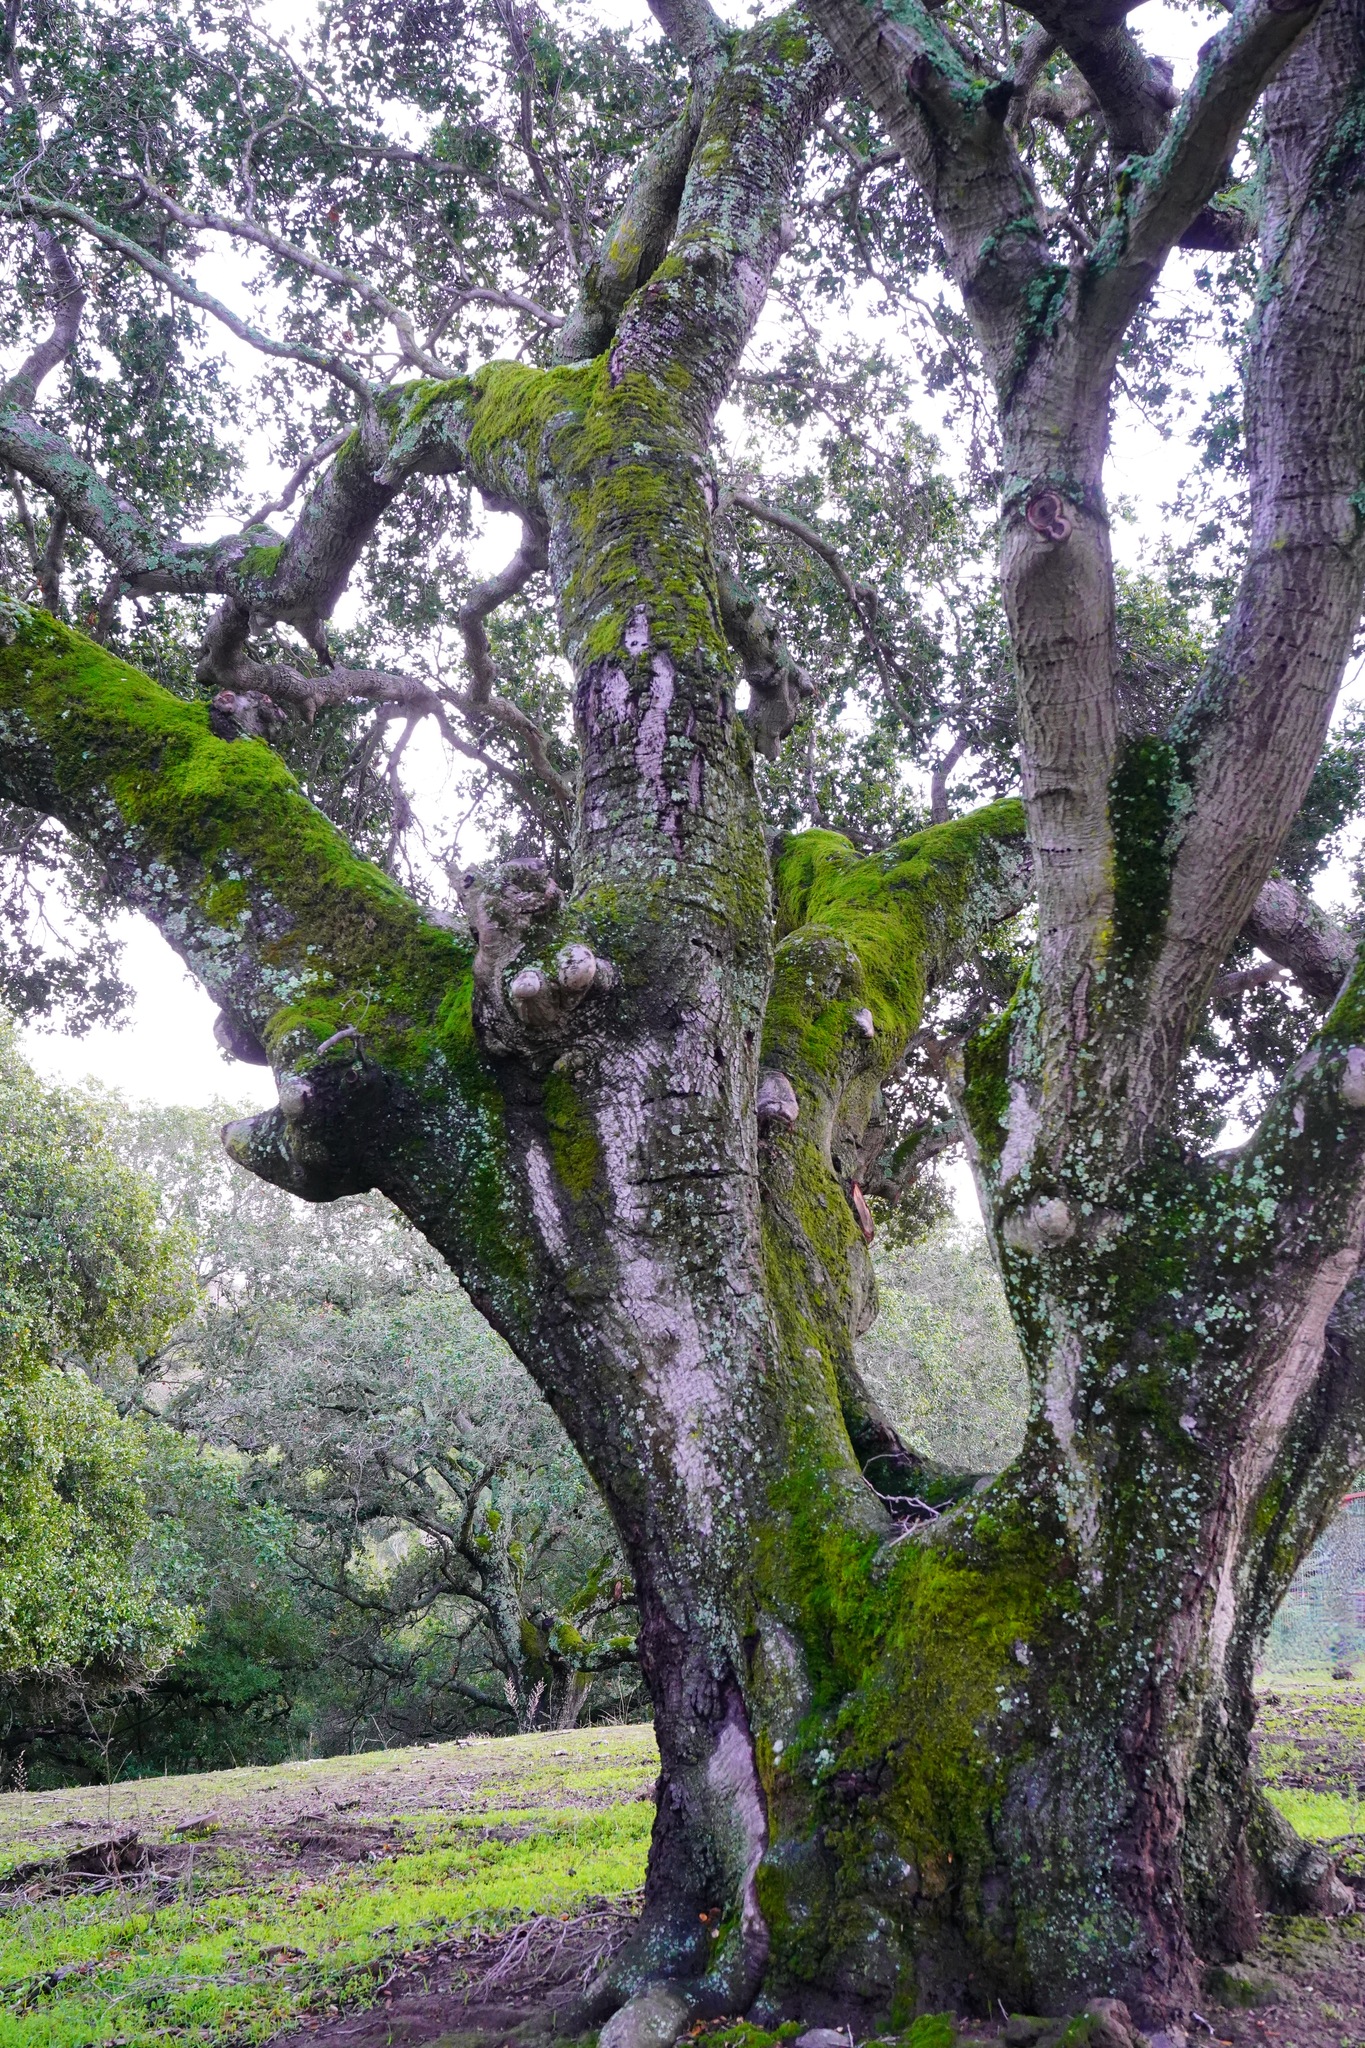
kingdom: Plantae
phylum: Tracheophyta
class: Magnoliopsida
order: Fagales
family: Fagaceae
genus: Quercus
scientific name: Quercus agrifolia
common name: California live oak
